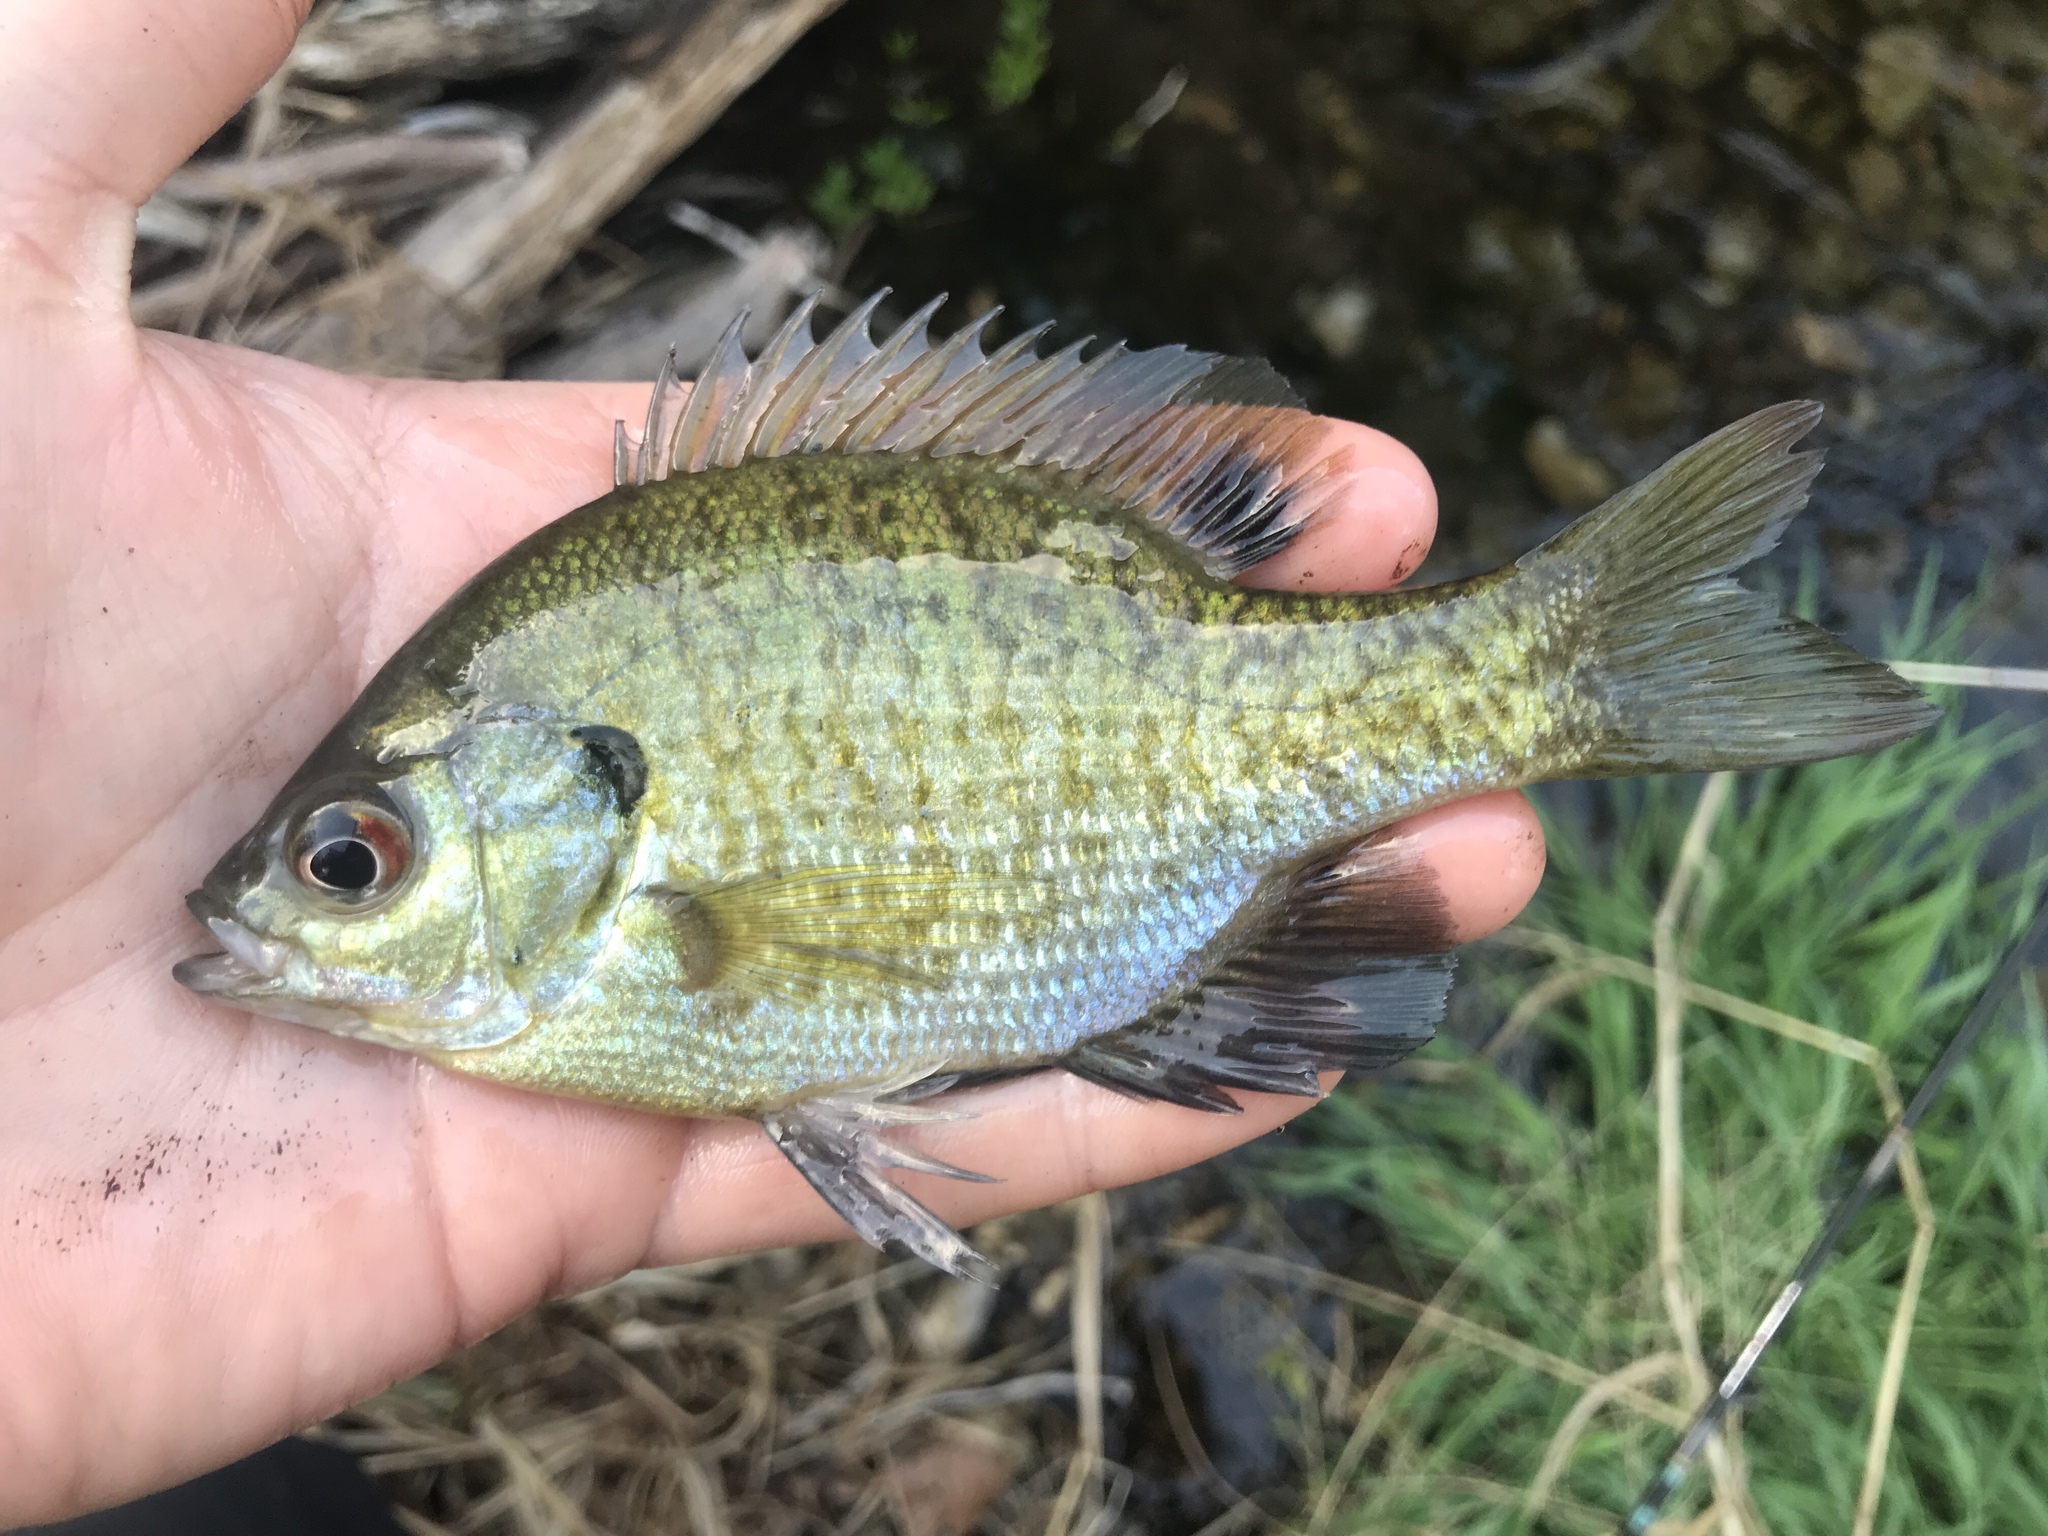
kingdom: Animalia
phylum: Chordata
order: Perciformes
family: Centrarchidae
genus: Lepomis
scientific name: Lepomis macrochirus
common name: Bluegill
